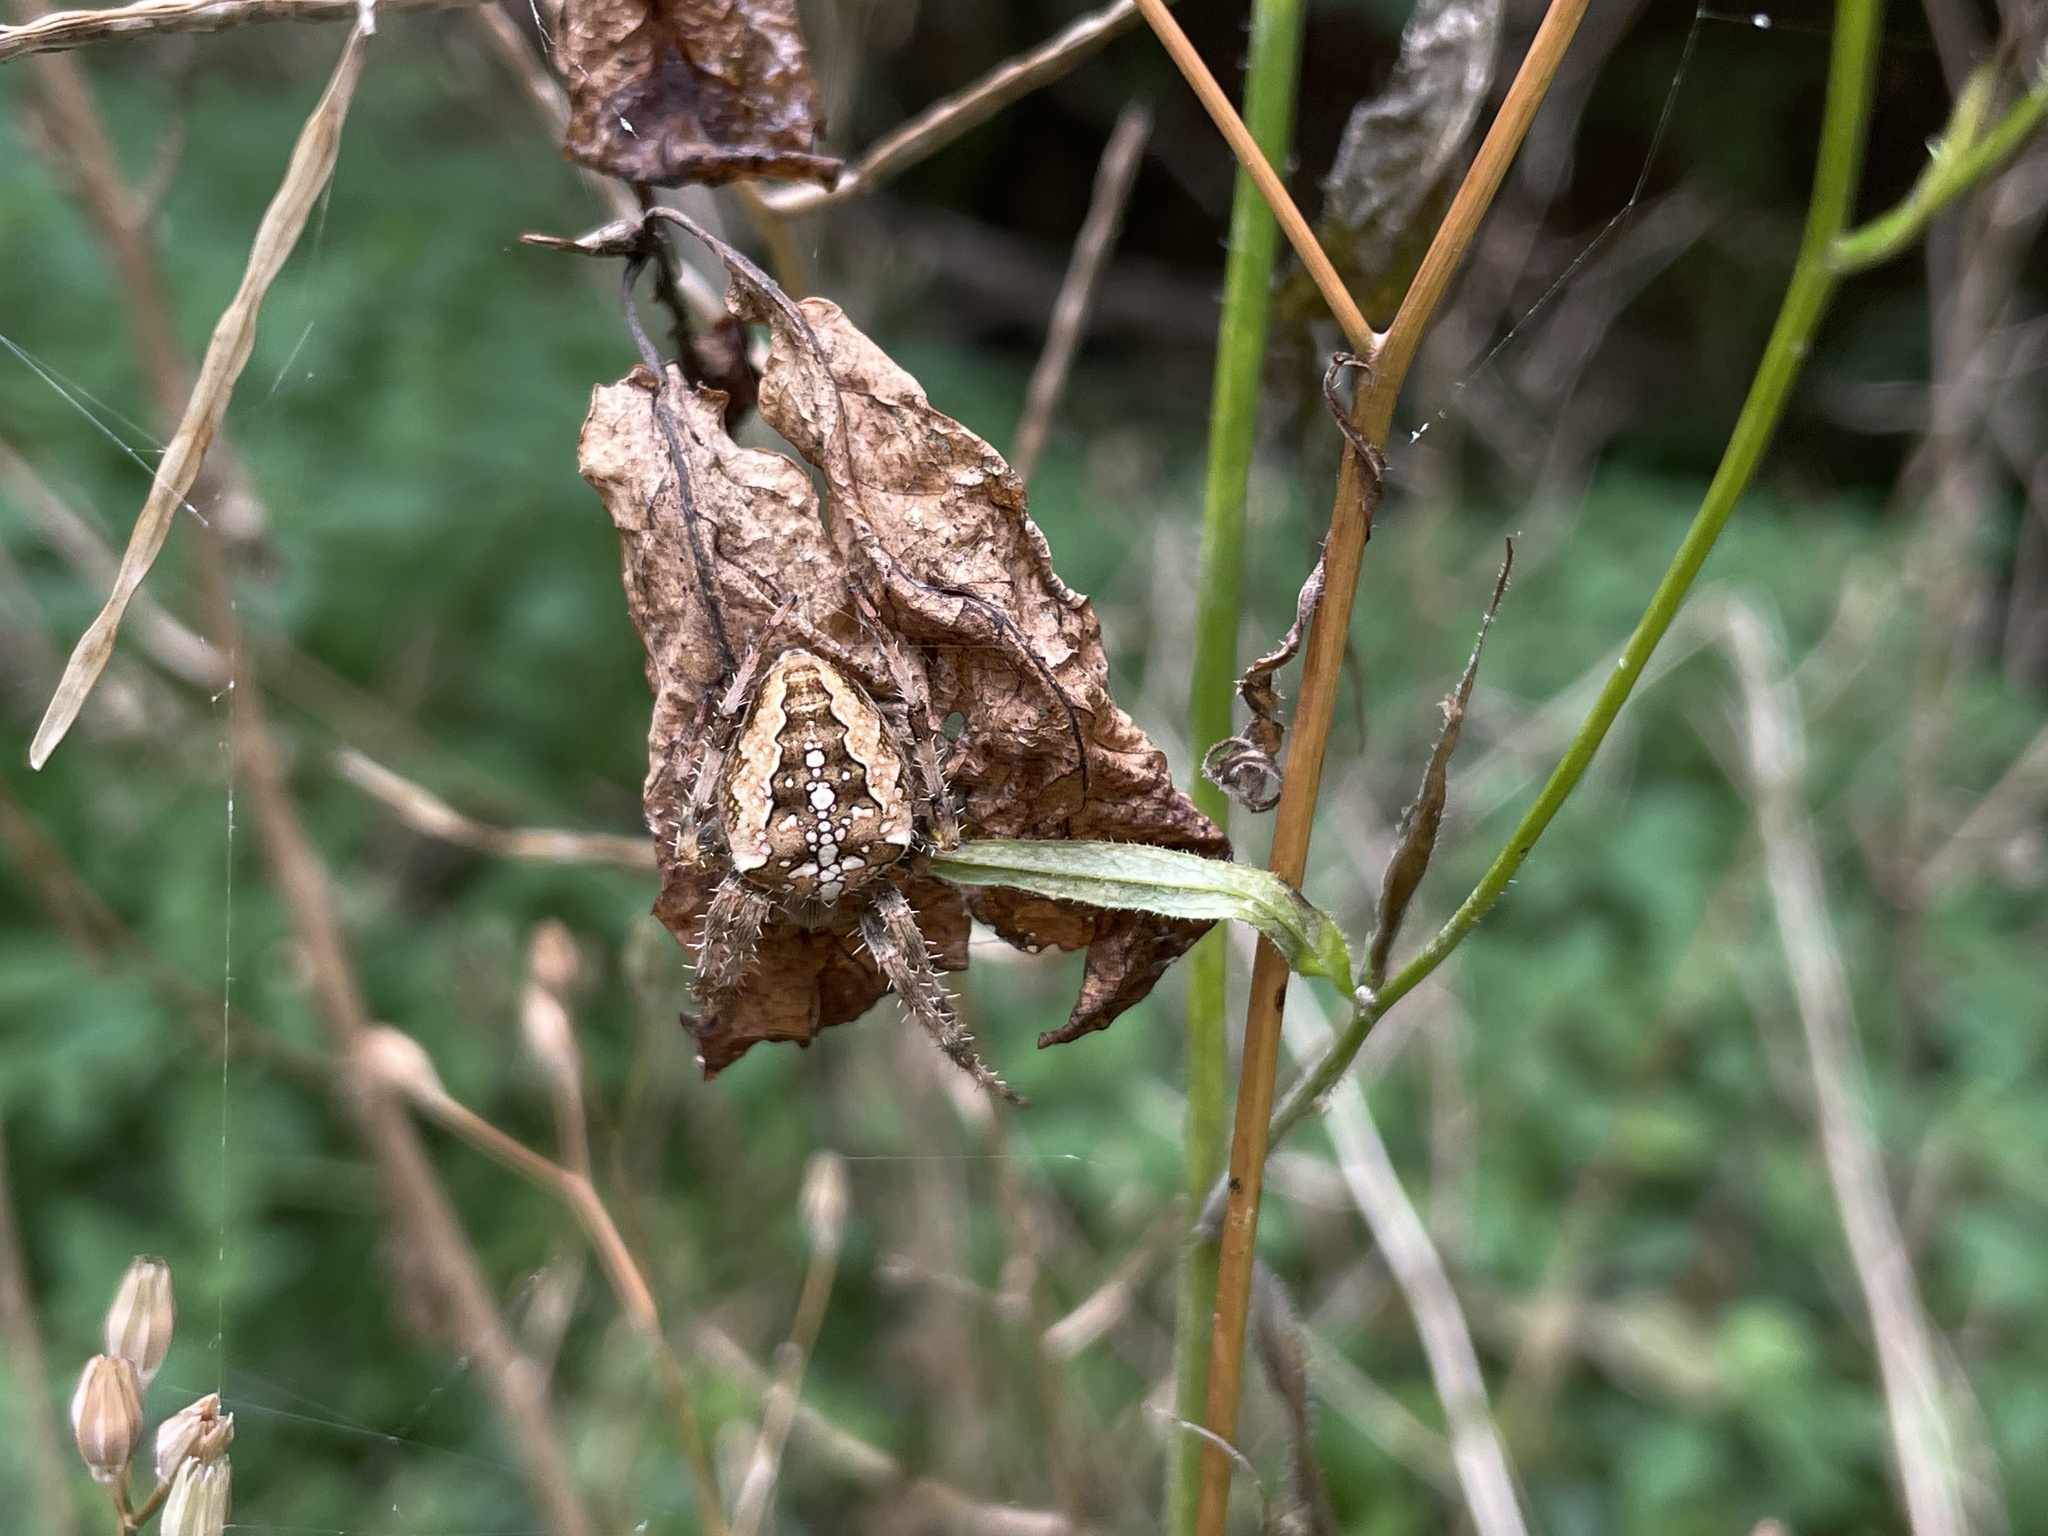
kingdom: Animalia
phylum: Arthropoda
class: Arachnida
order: Araneae
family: Araneidae
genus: Araneus
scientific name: Araneus diadematus
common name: Cross orbweaver
